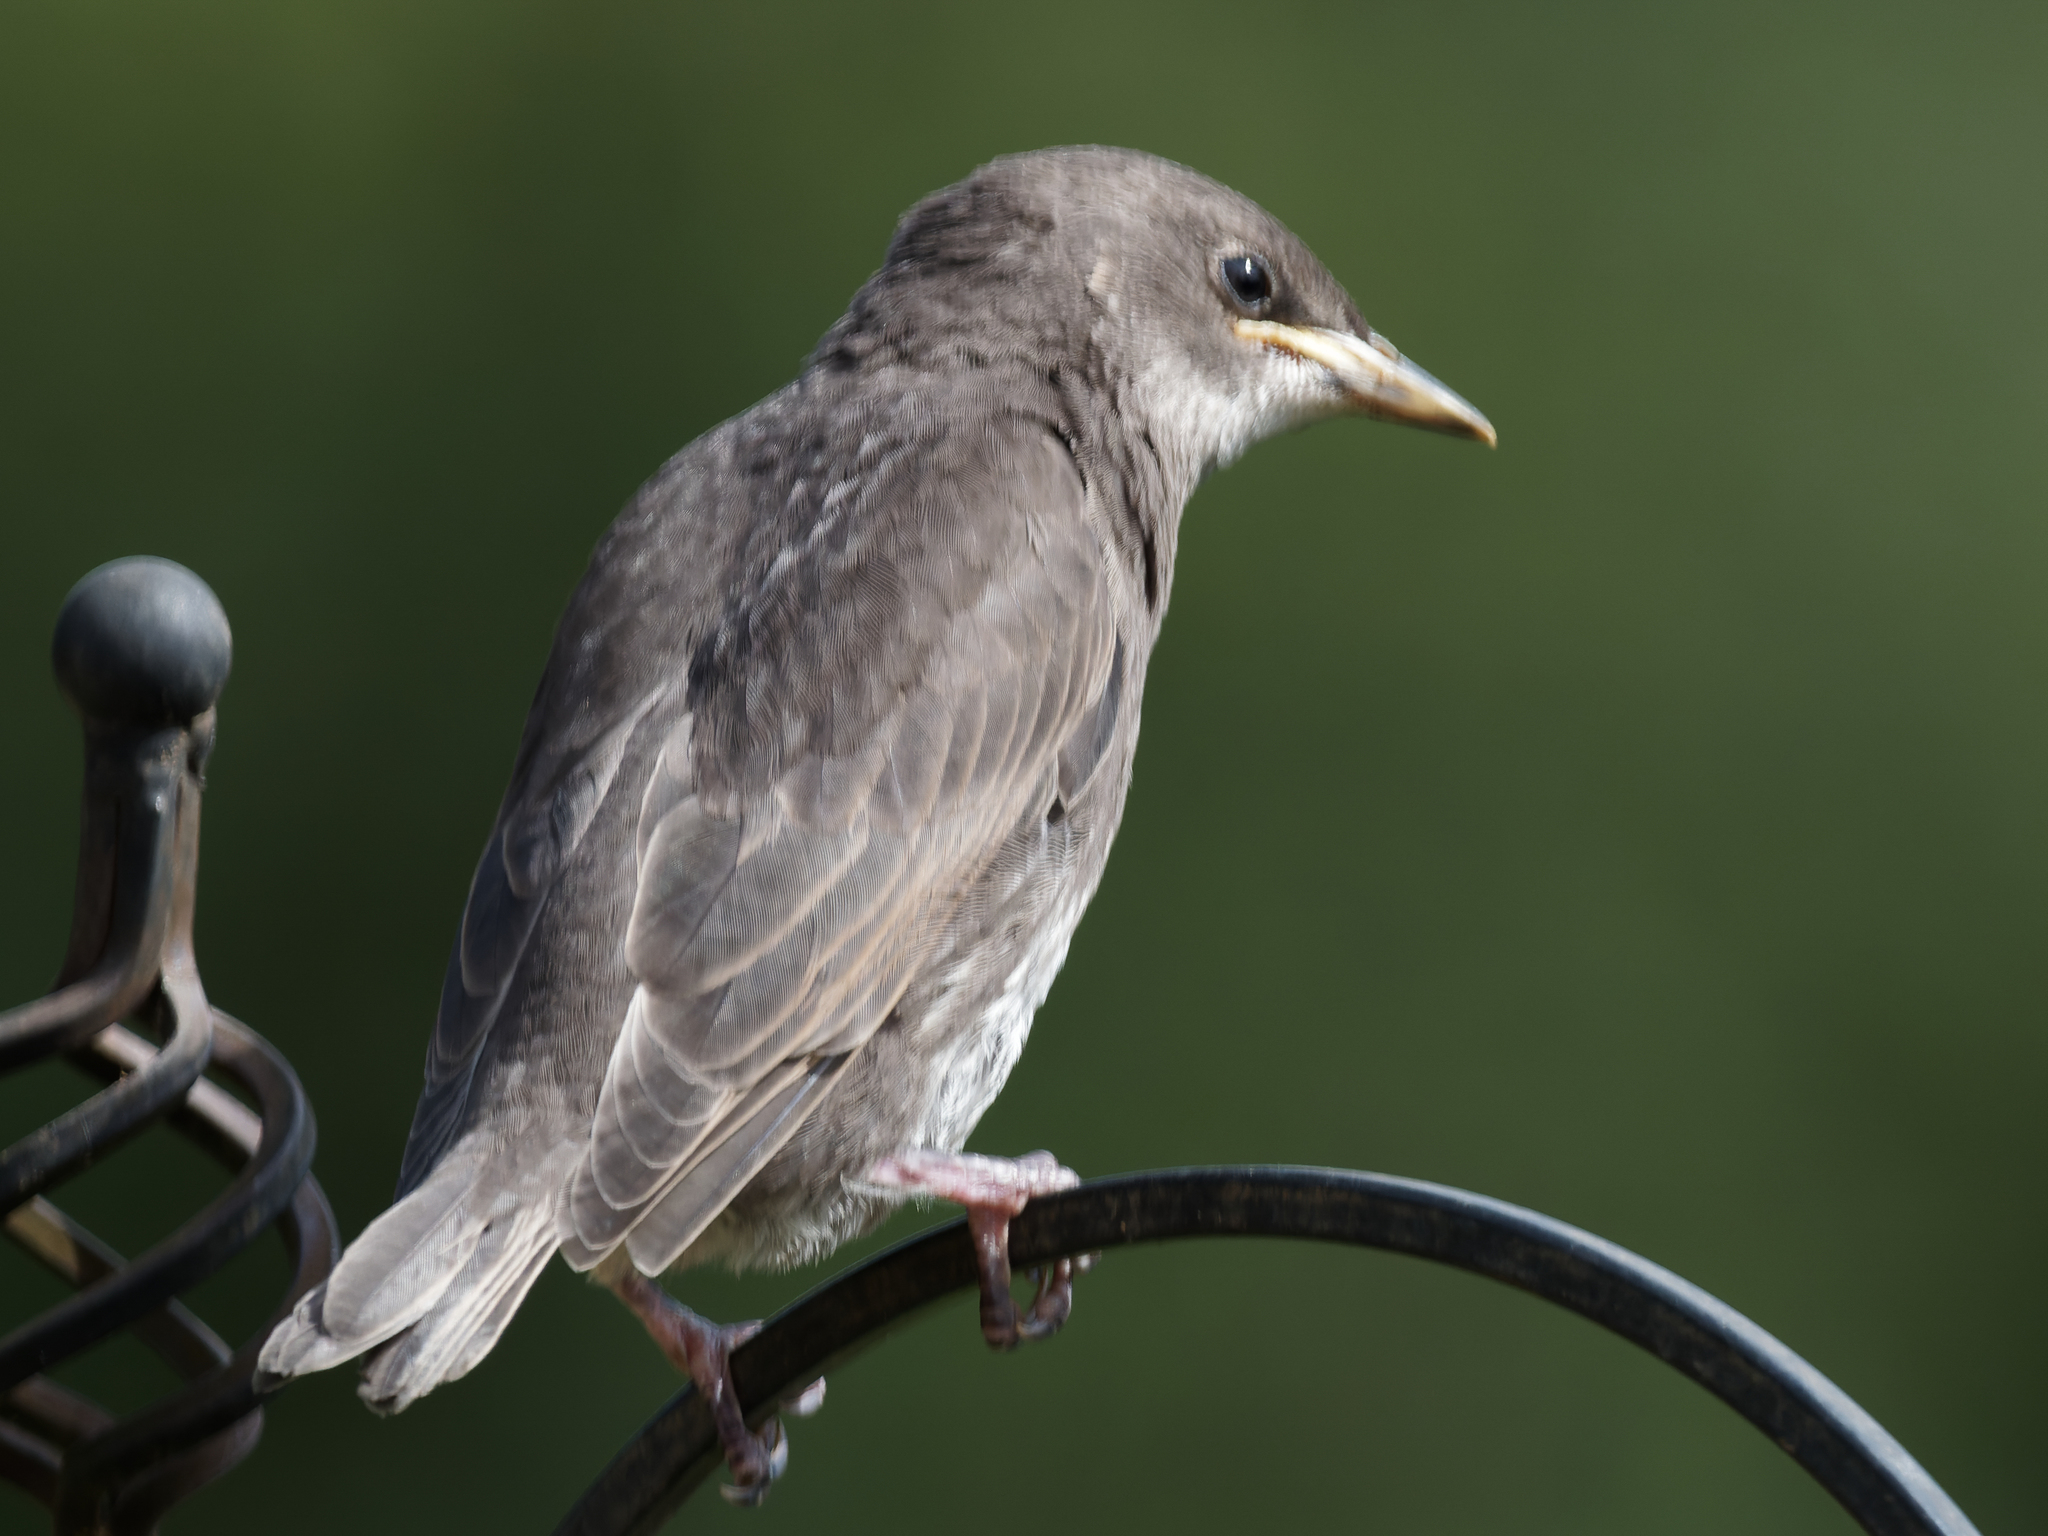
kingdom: Animalia
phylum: Chordata
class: Aves
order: Passeriformes
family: Sturnidae
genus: Sturnus
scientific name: Sturnus vulgaris
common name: Common starling
